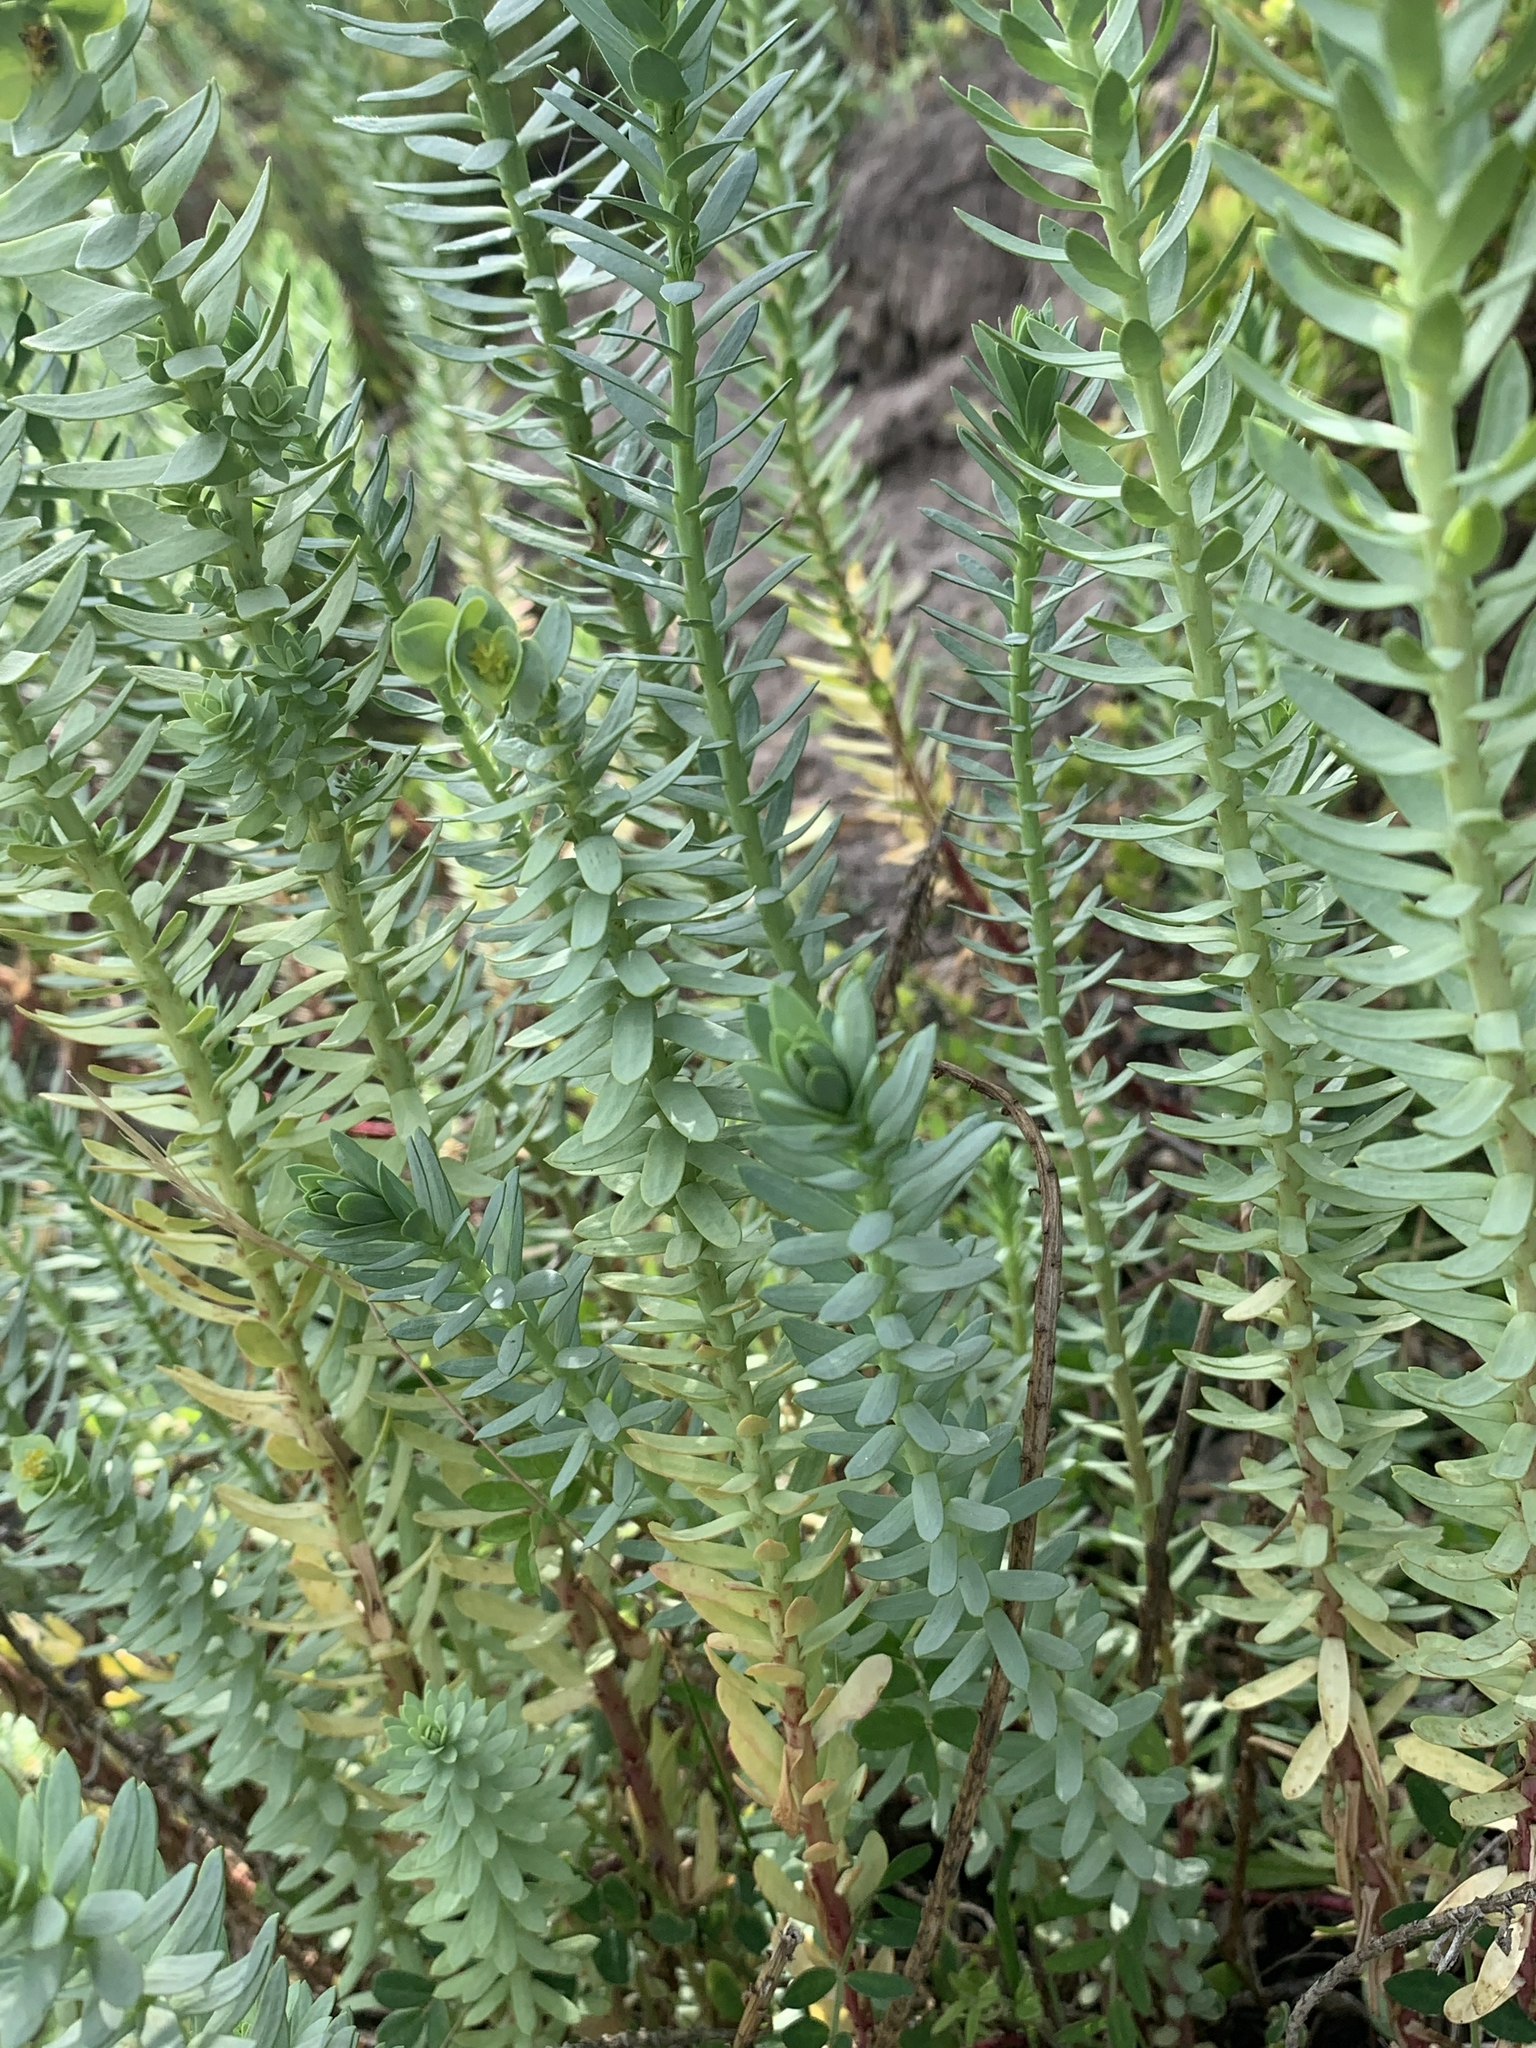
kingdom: Plantae
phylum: Tracheophyta
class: Magnoliopsida
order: Malpighiales
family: Euphorbiaceae
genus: Euphorbia
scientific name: Euphorbia paralias
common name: Sea spurge
